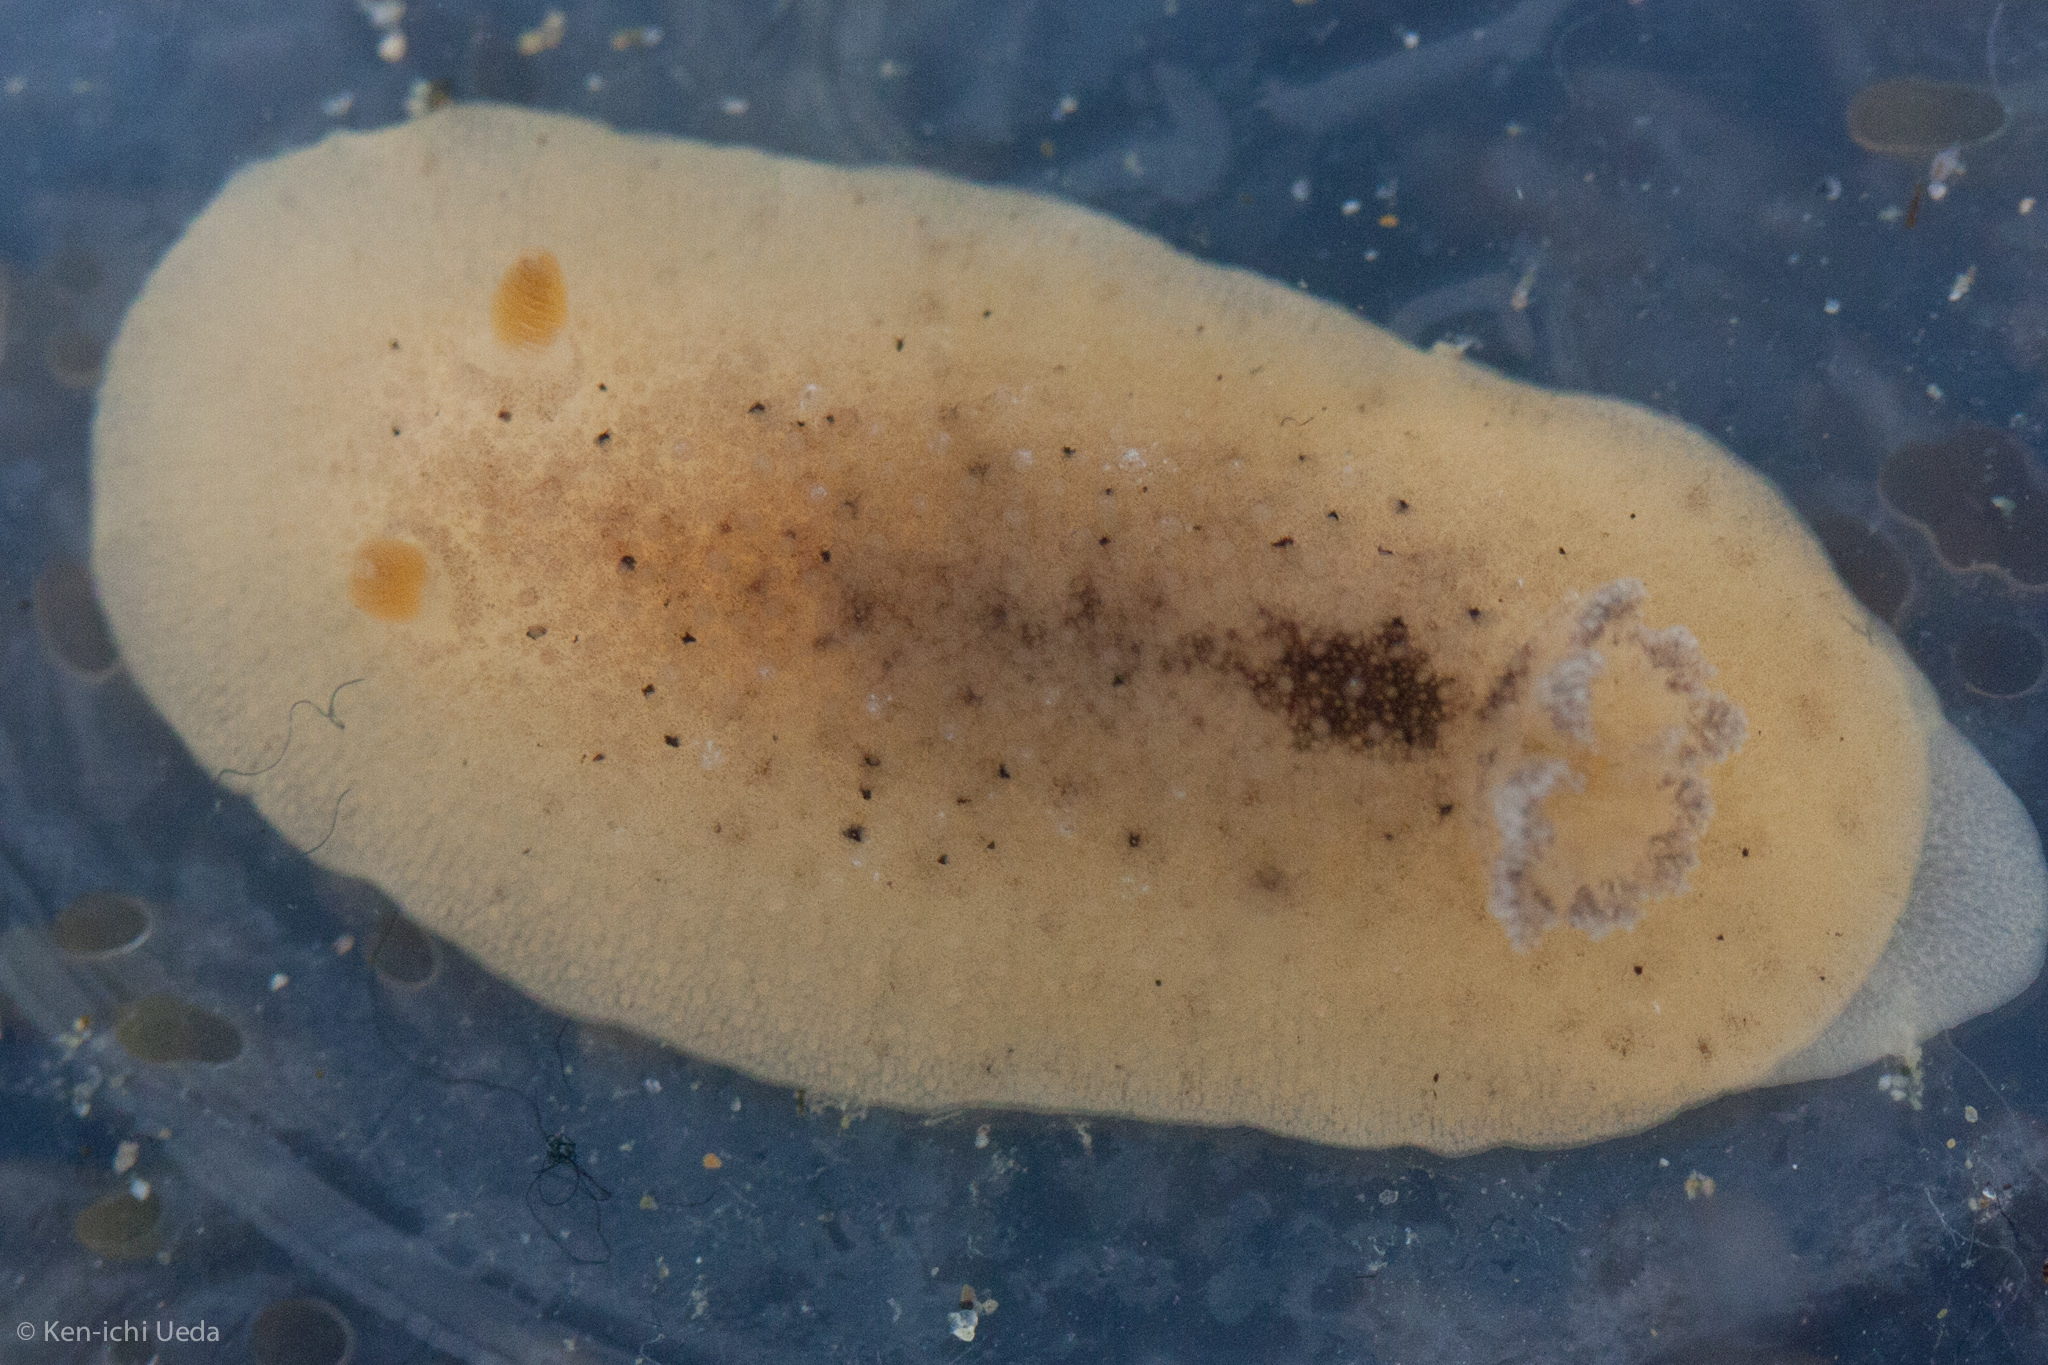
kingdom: Animalia
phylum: Mollusca
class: Gastropoda
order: Nudibranchia
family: Discodorididae
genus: Geitodoris
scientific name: Geitodoris heathi
